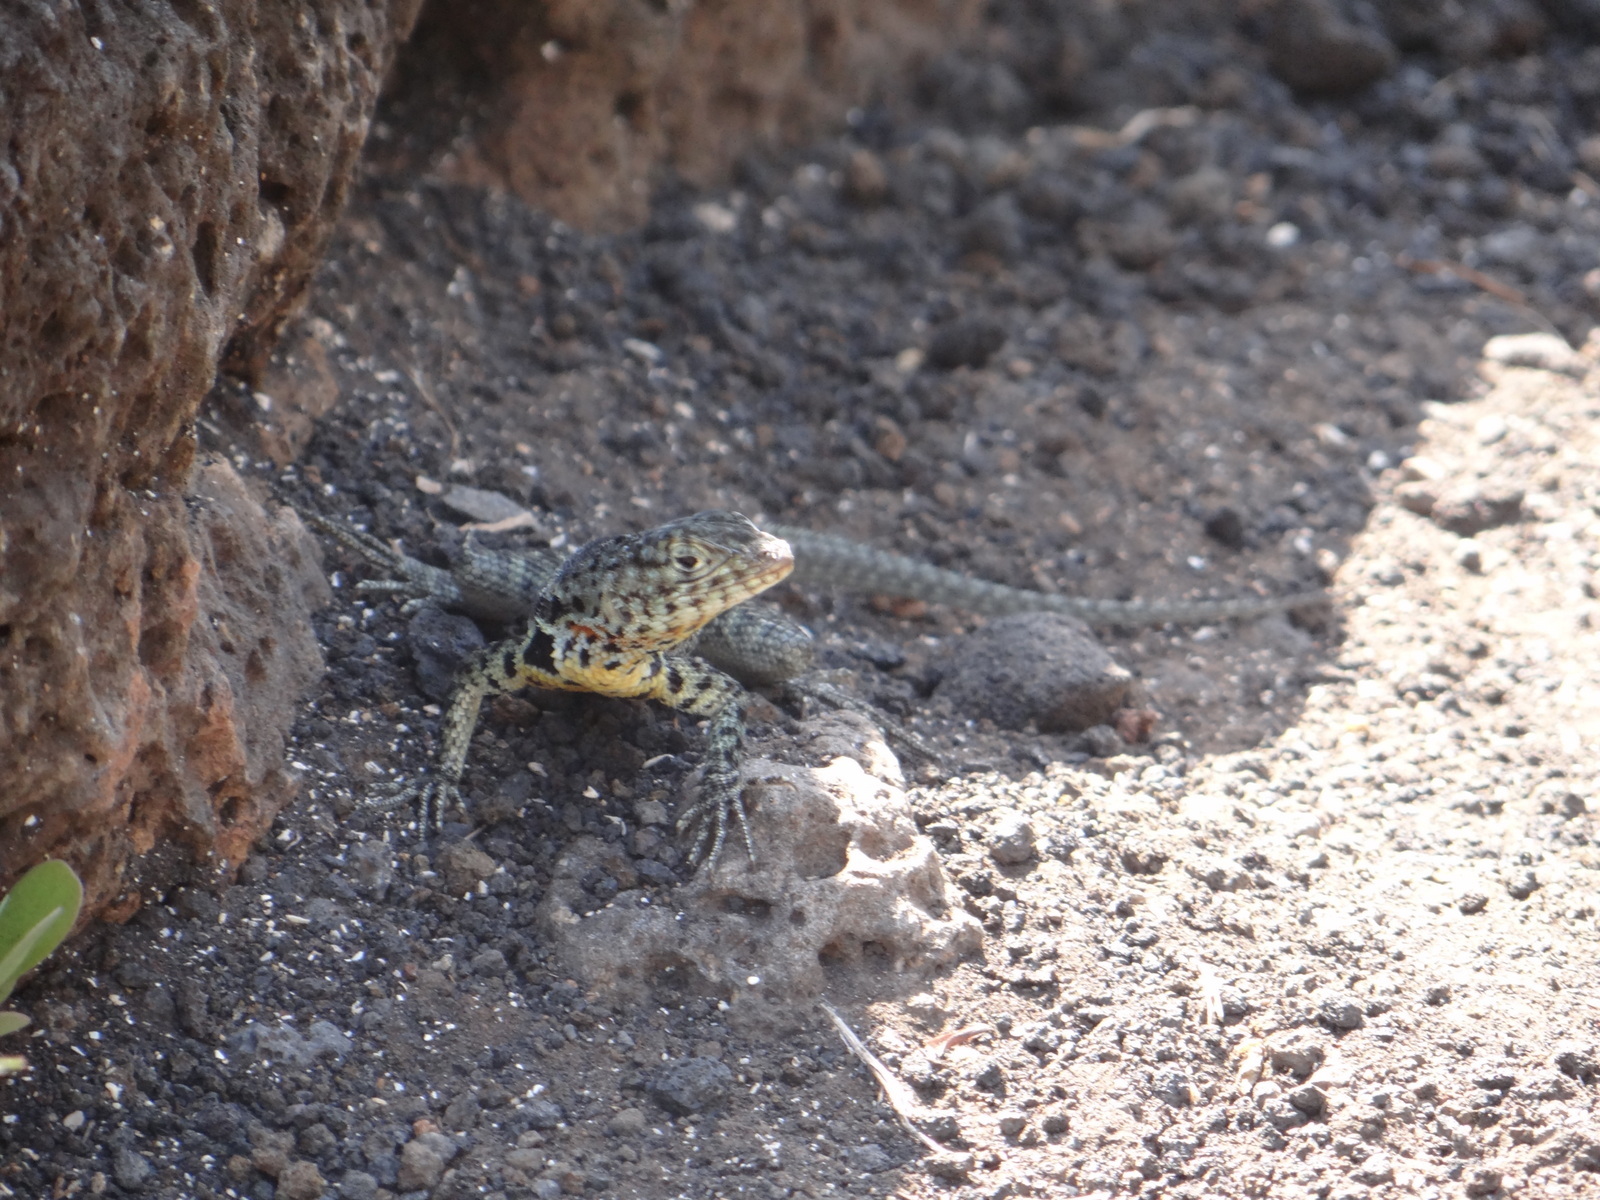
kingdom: Animalia
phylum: Chordata
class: Squamata
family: Tropiduridae
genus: Microlophus
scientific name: Microlophus indefatigabilis
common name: Galapagos lava lizard
